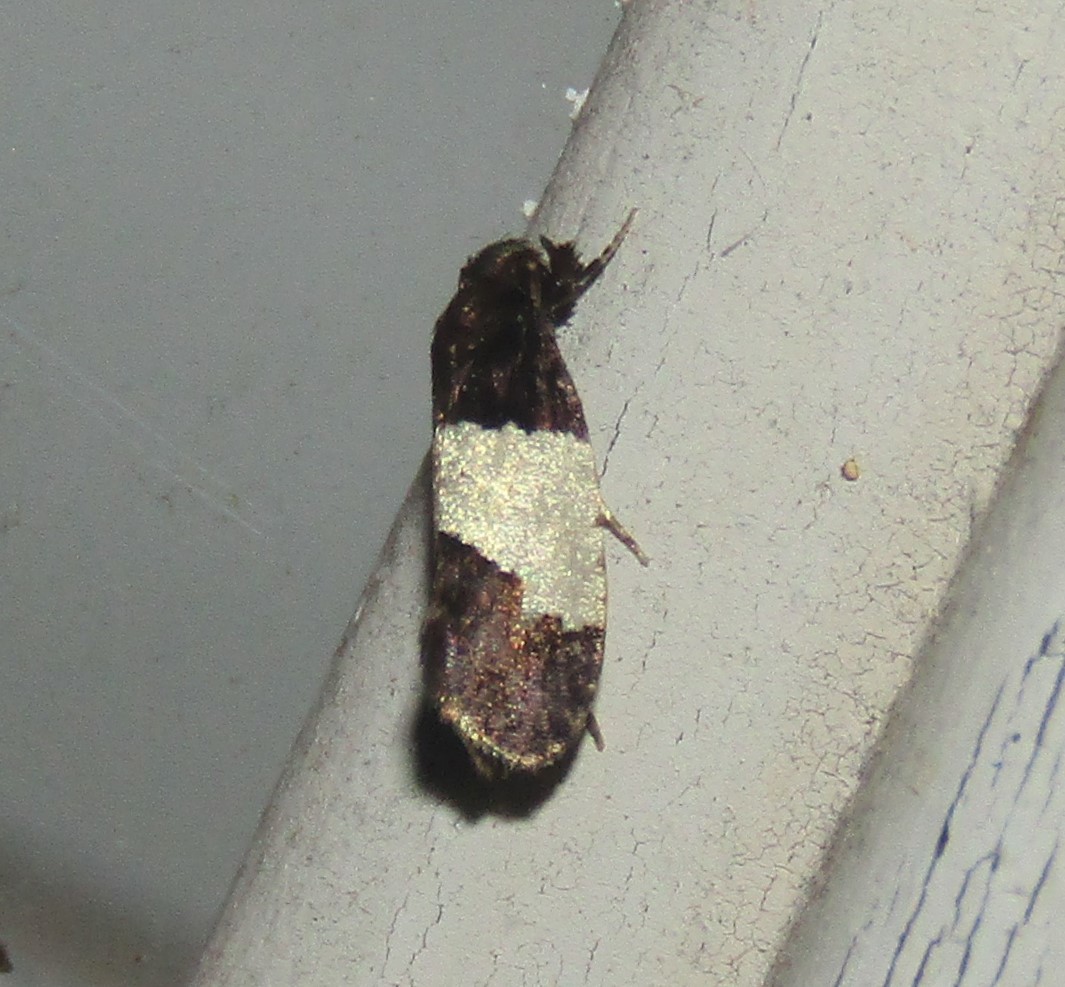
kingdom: Animalia
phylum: Arthropoda
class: Insecta
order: Lepidoptera
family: Psychidae
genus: Kearfottia
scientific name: Kearfottia albifasciella
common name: White-patched kearfottia
